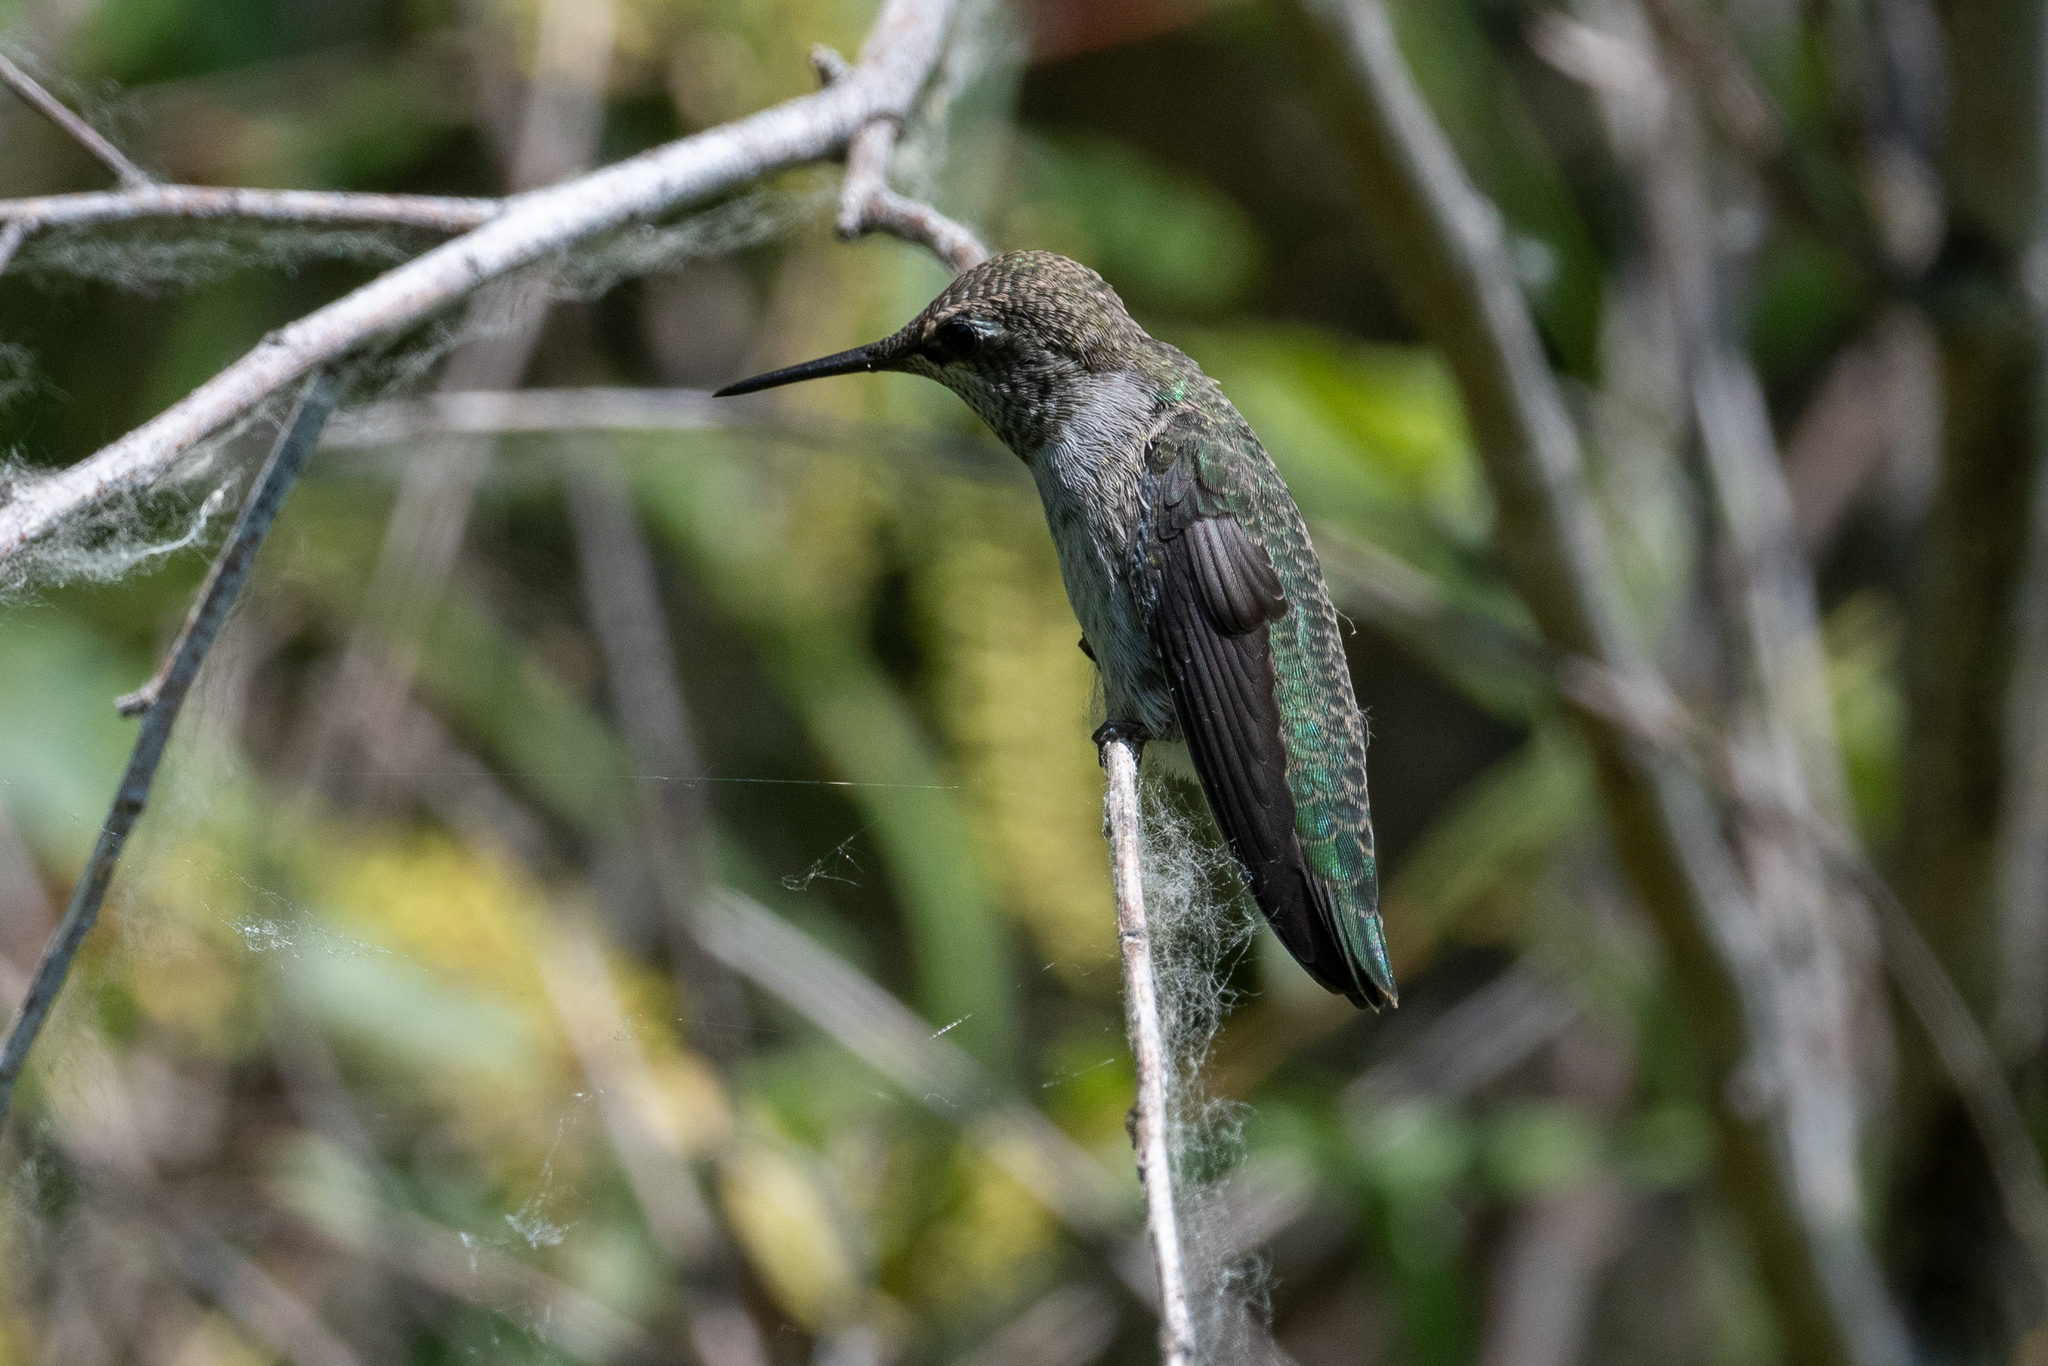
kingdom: Animalia
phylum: Chordata
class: Aves
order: Apodiformes
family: Trochilidae
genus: Calypte
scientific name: Calypte anna
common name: Anna's hummingbird
